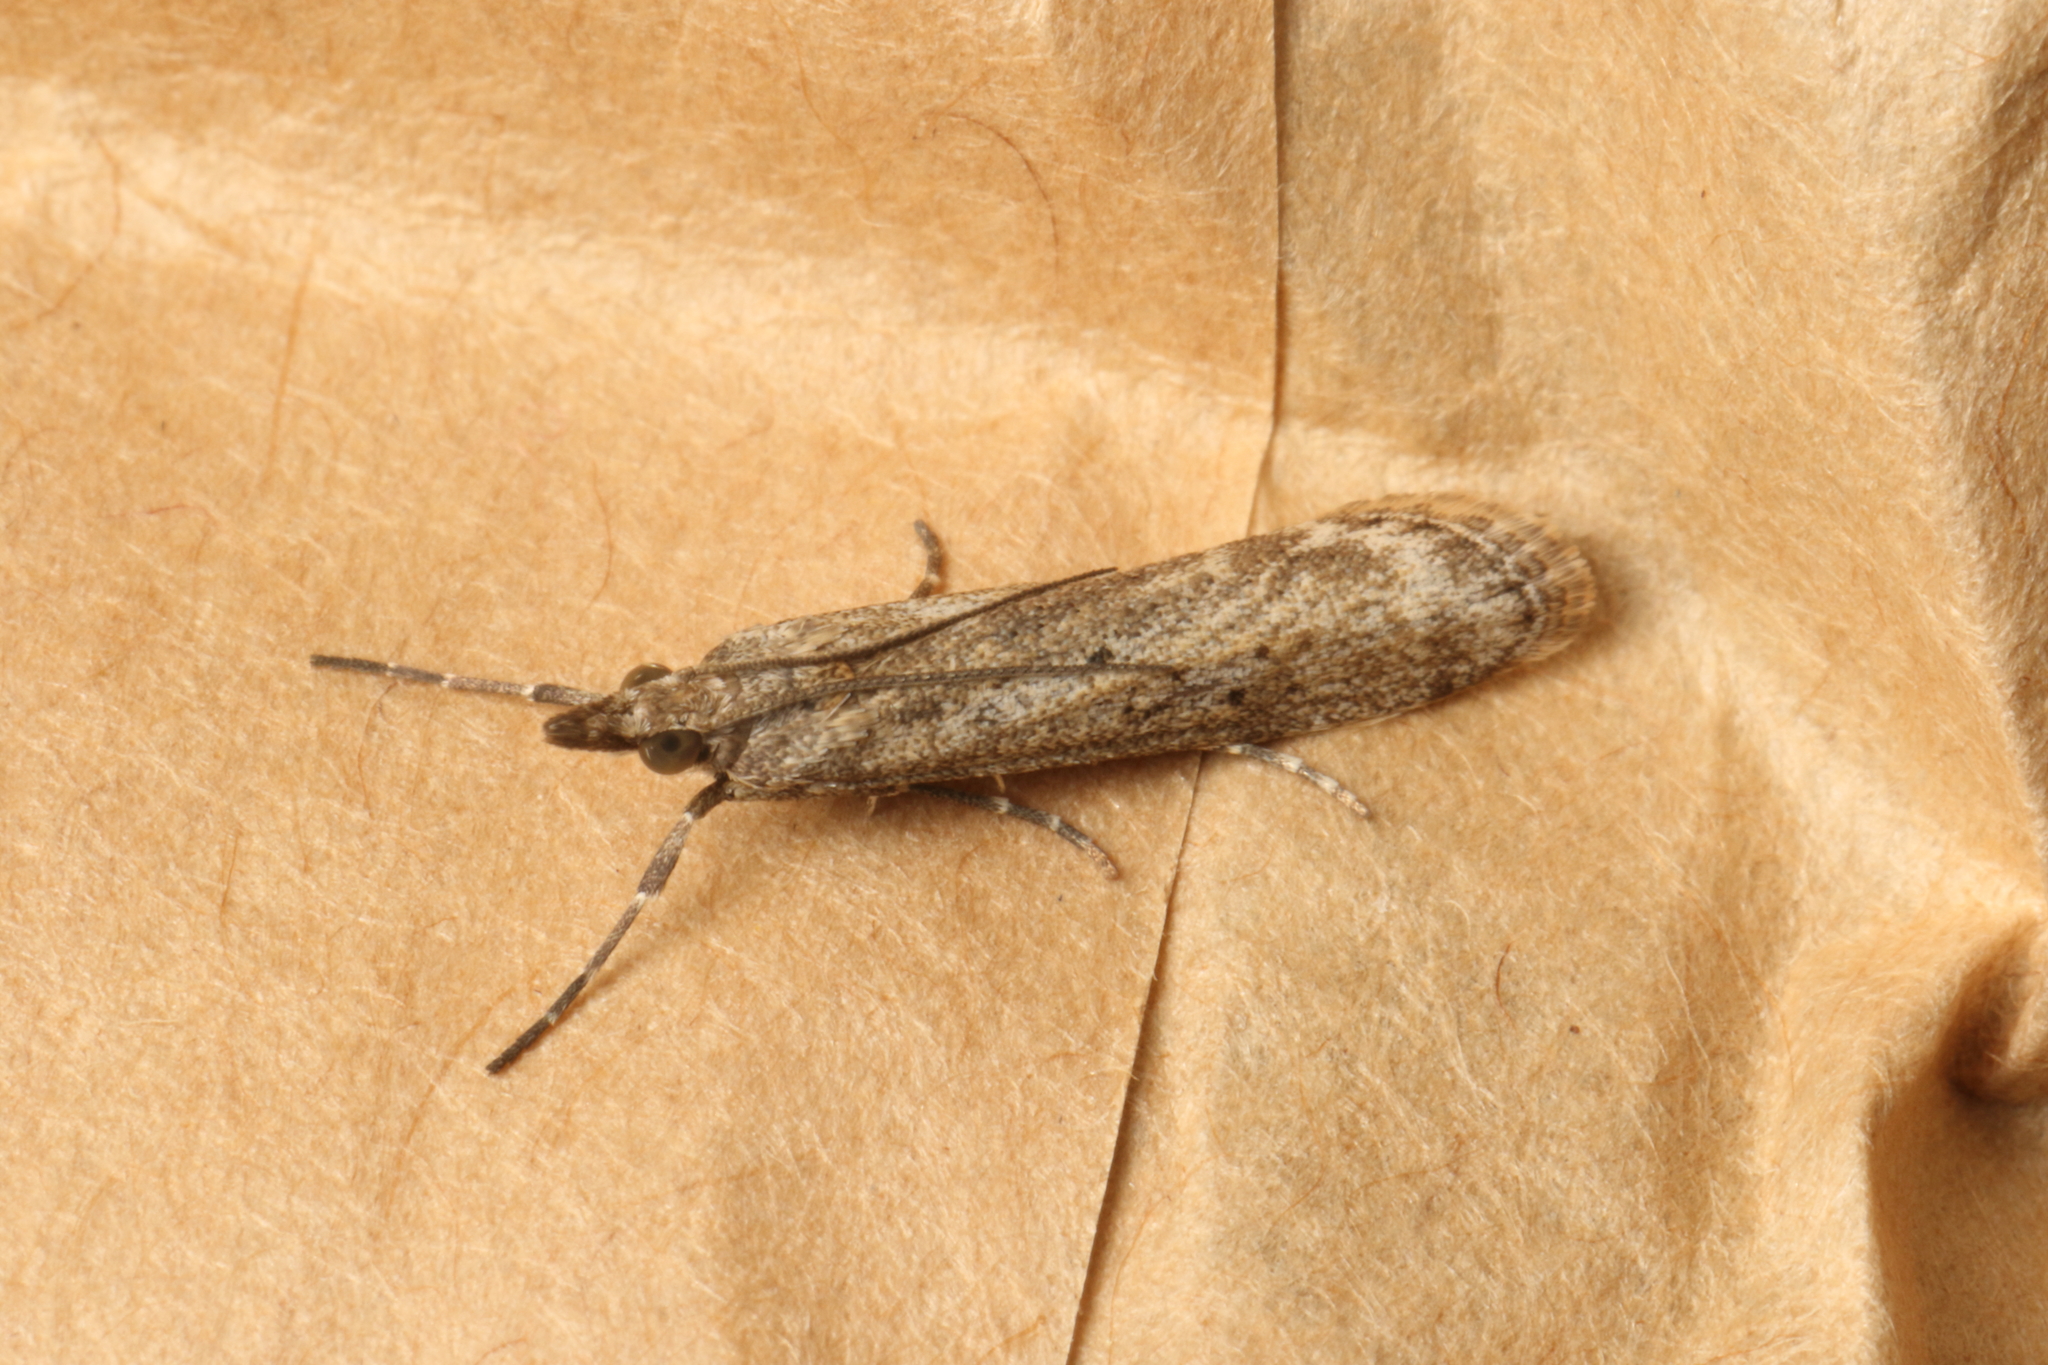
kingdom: Animalia
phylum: Arthropoda
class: Insecta
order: Lepidoptera
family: Crambidae
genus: Eudonia
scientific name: Eudonia leptalea
